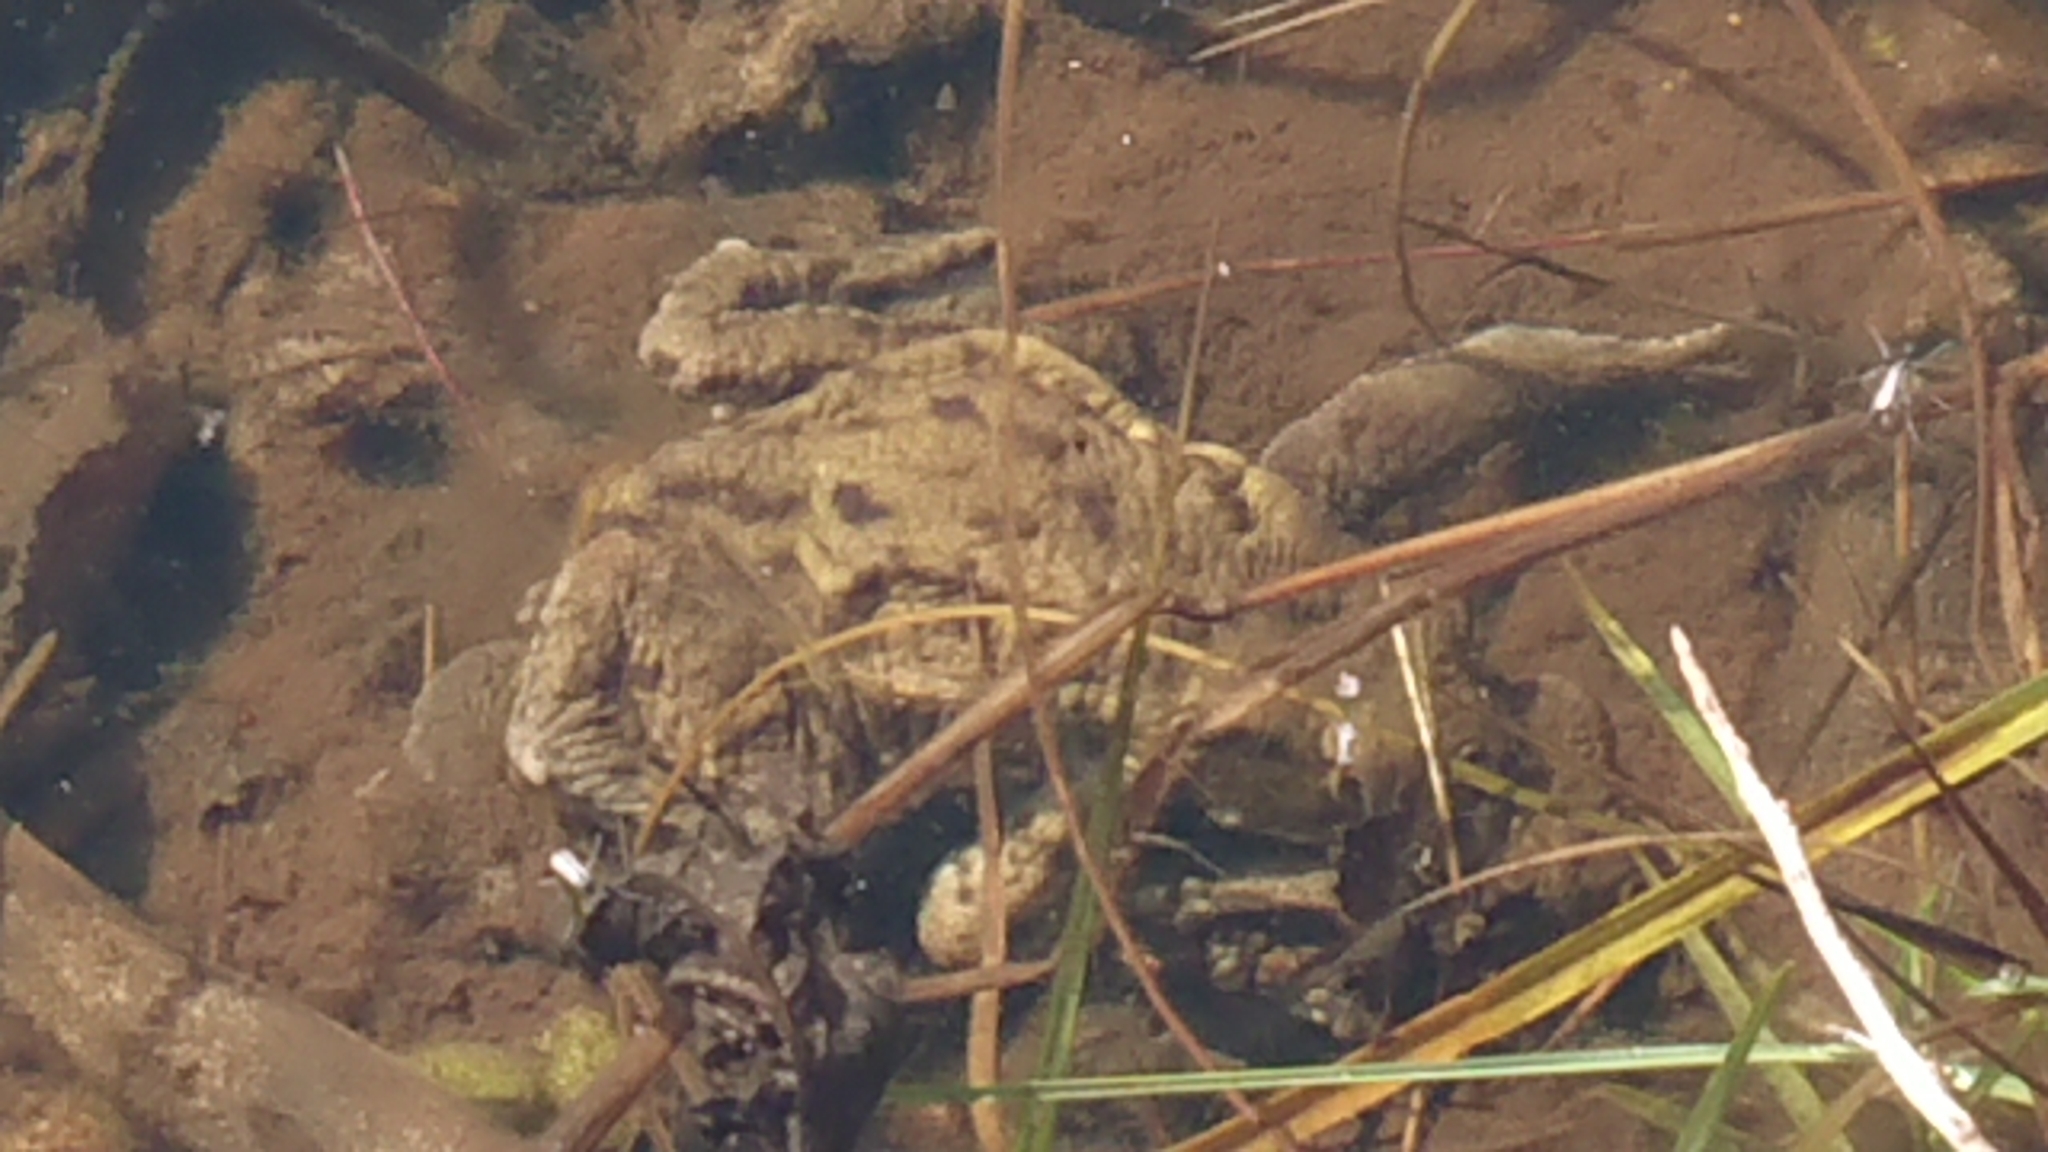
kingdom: Animalia
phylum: Chordata
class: Amphibia
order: Anura
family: Bufonidae
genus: Bufo
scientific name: Bufo bufo
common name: Common toad
